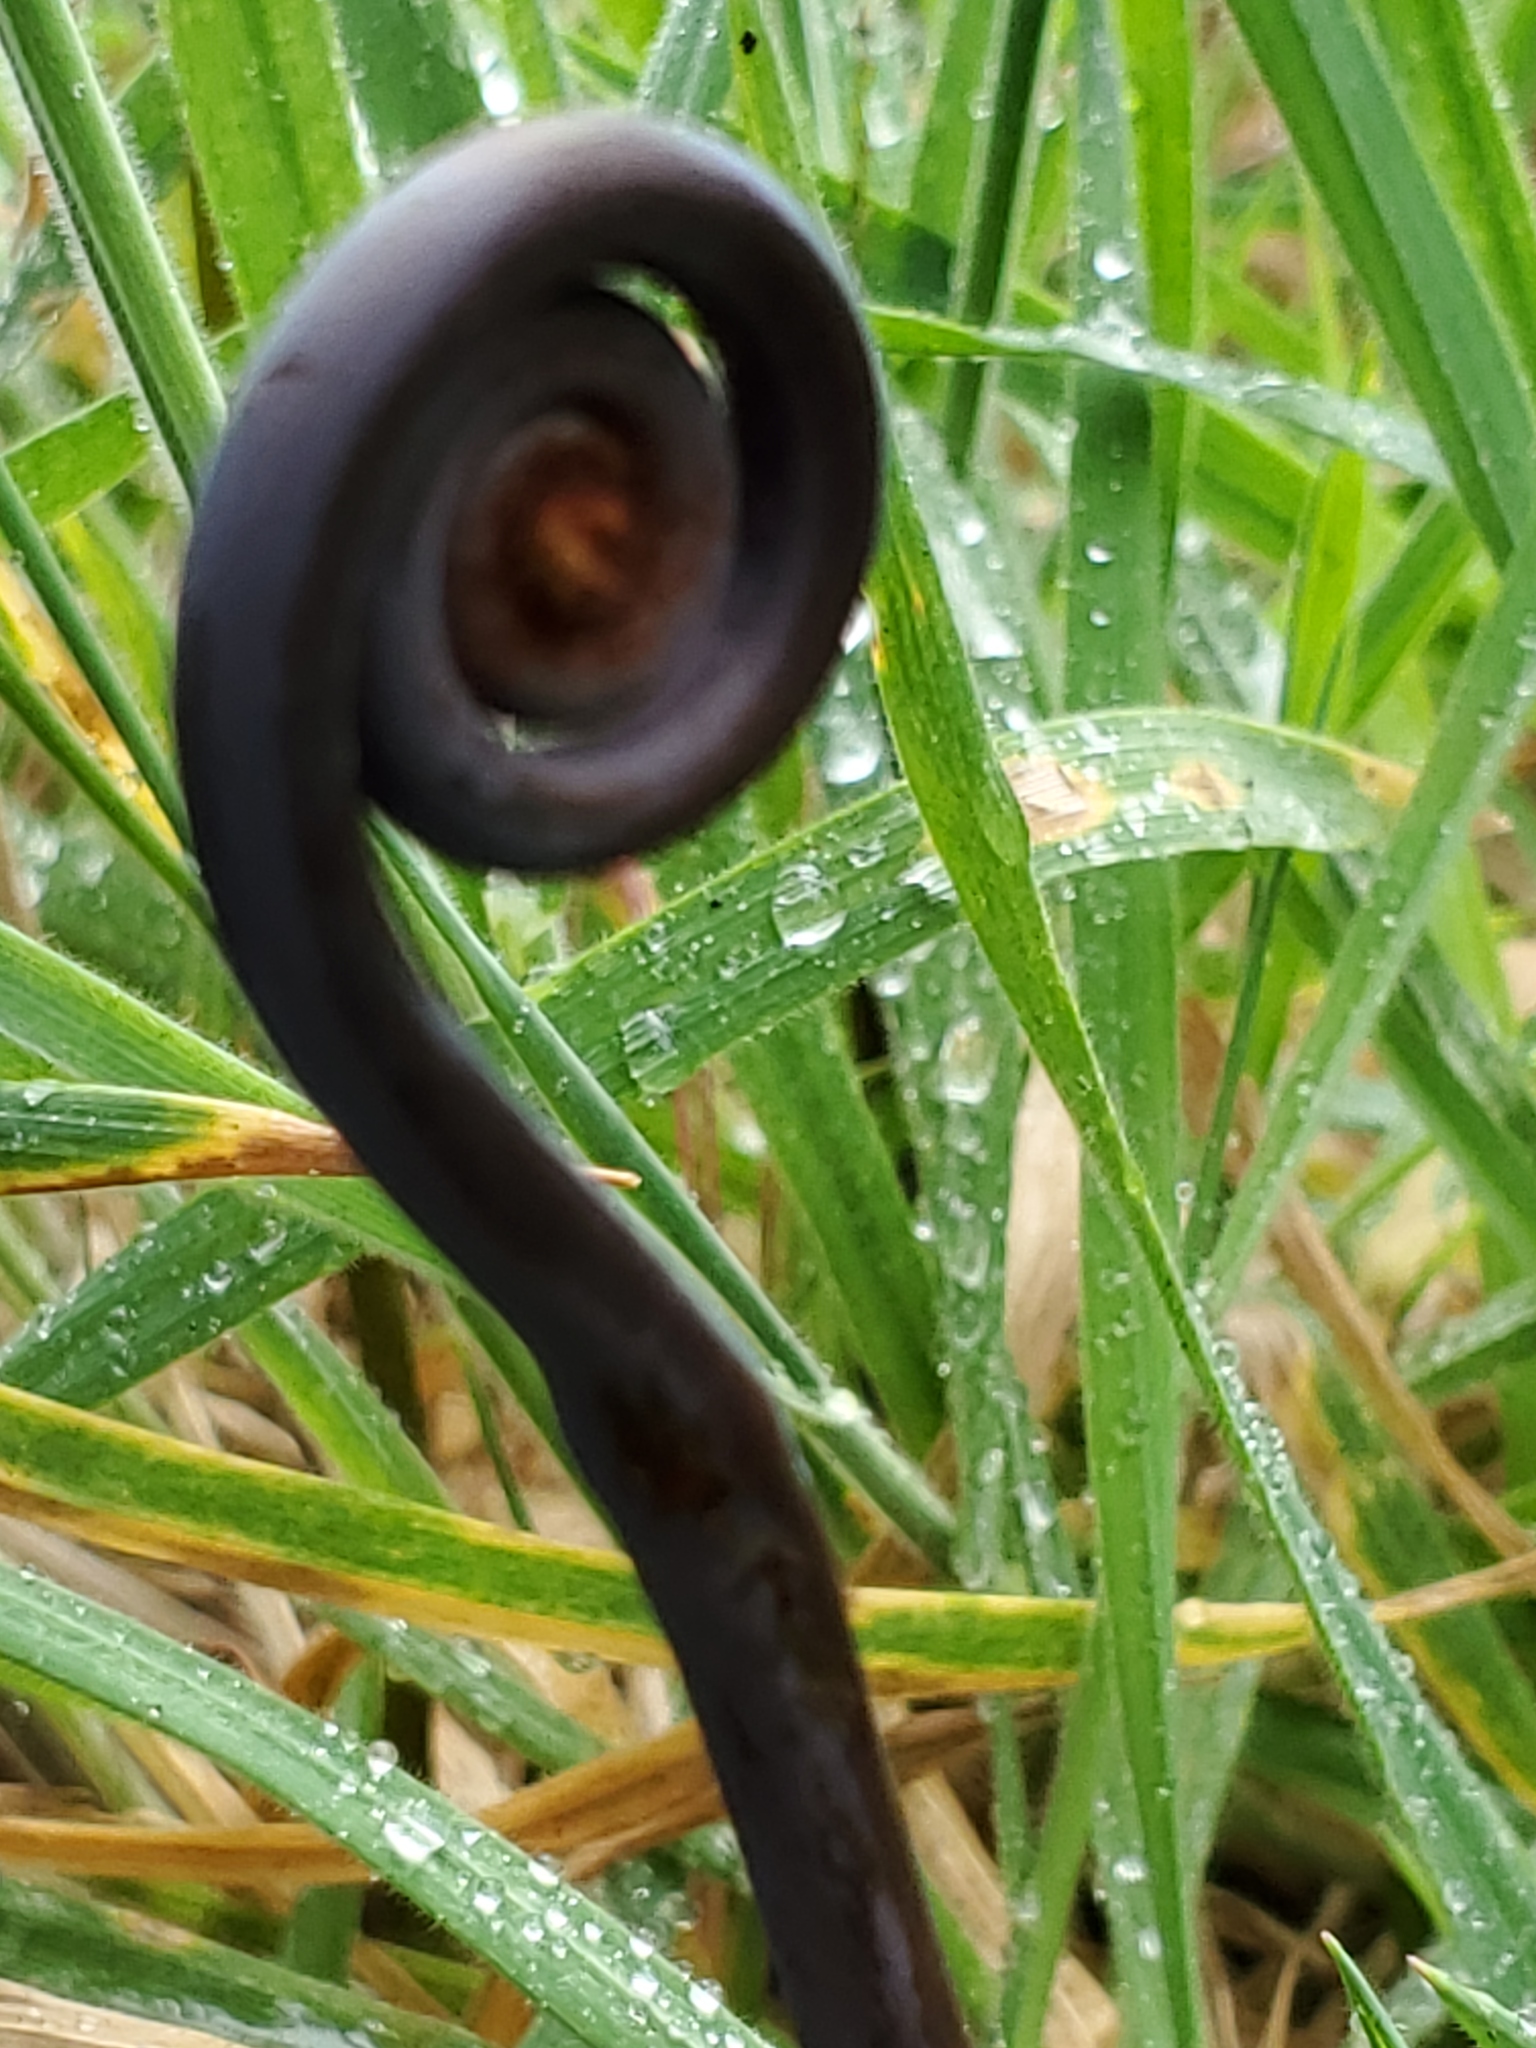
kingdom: Plantae
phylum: Tracheophyta
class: Polypodiopsida
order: Gleicheniales
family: Gleicheniaceae
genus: Dicranopteris
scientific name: Dicranopteris linearis
